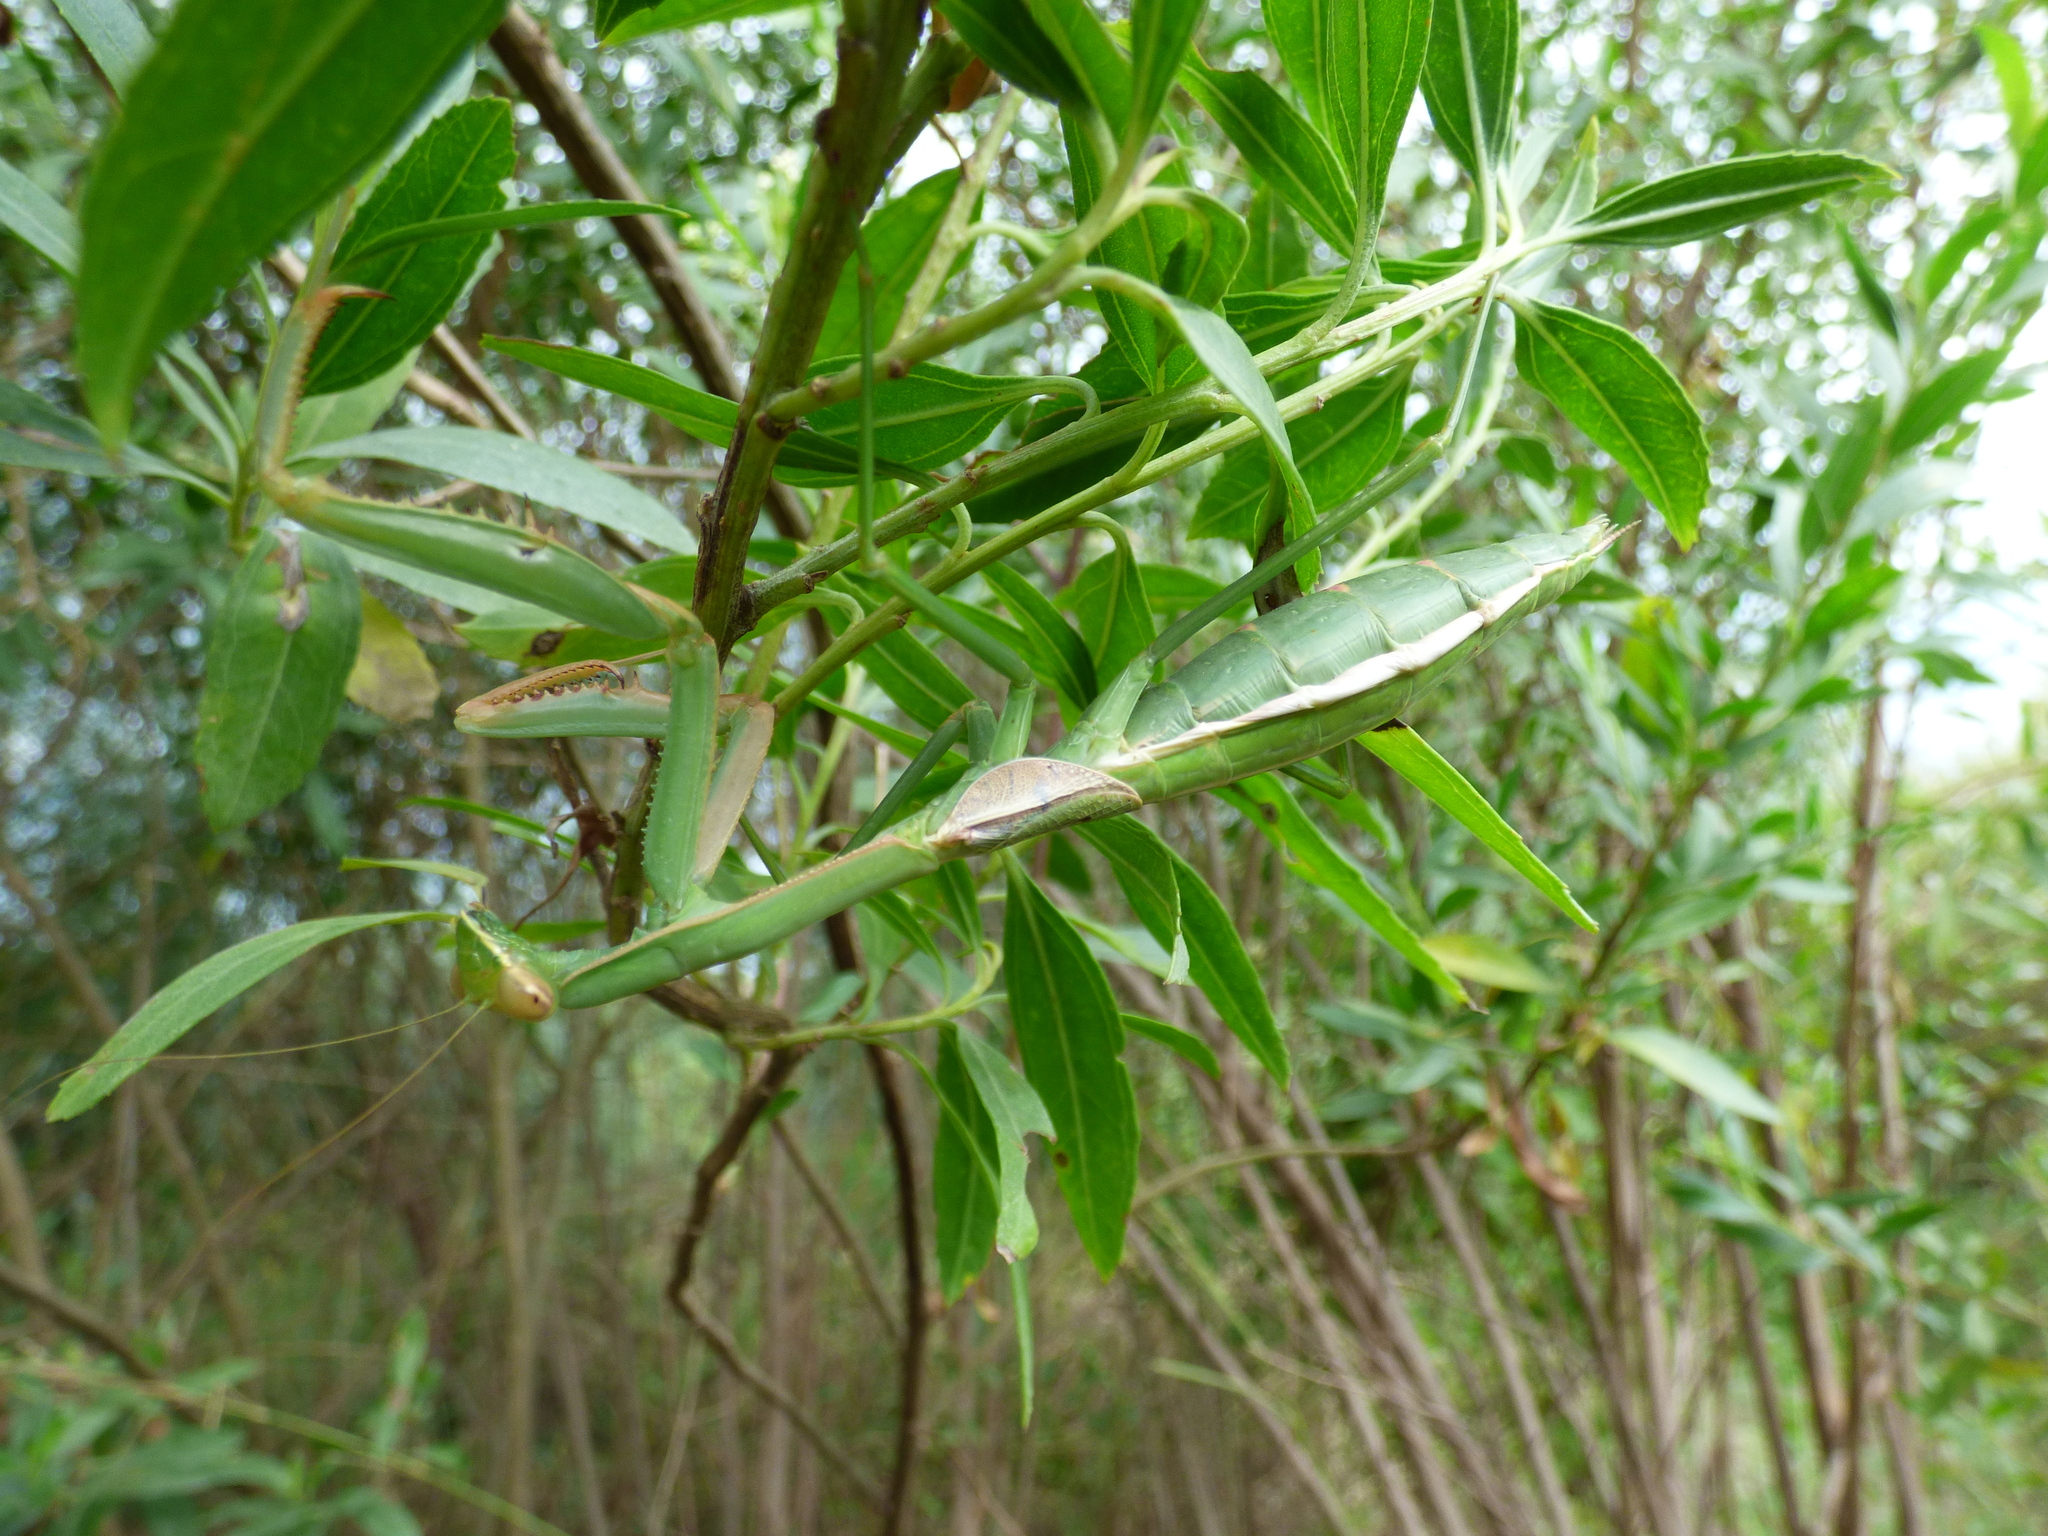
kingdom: Animalia
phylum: Arthropoda
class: Insecta
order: Mantodea
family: Coptopterygidae
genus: Coptopteryx
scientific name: Coptopteryx argentina
